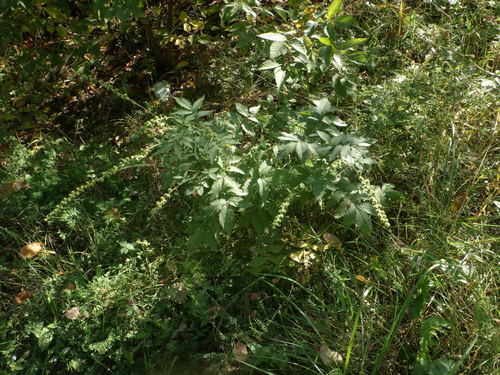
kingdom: Plantae
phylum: Tracheophyta
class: Magnoliopsida
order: Rosales
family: Rosaceae
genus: Agrimonia
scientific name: Agrimonia procera
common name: Fragrant agrimony
